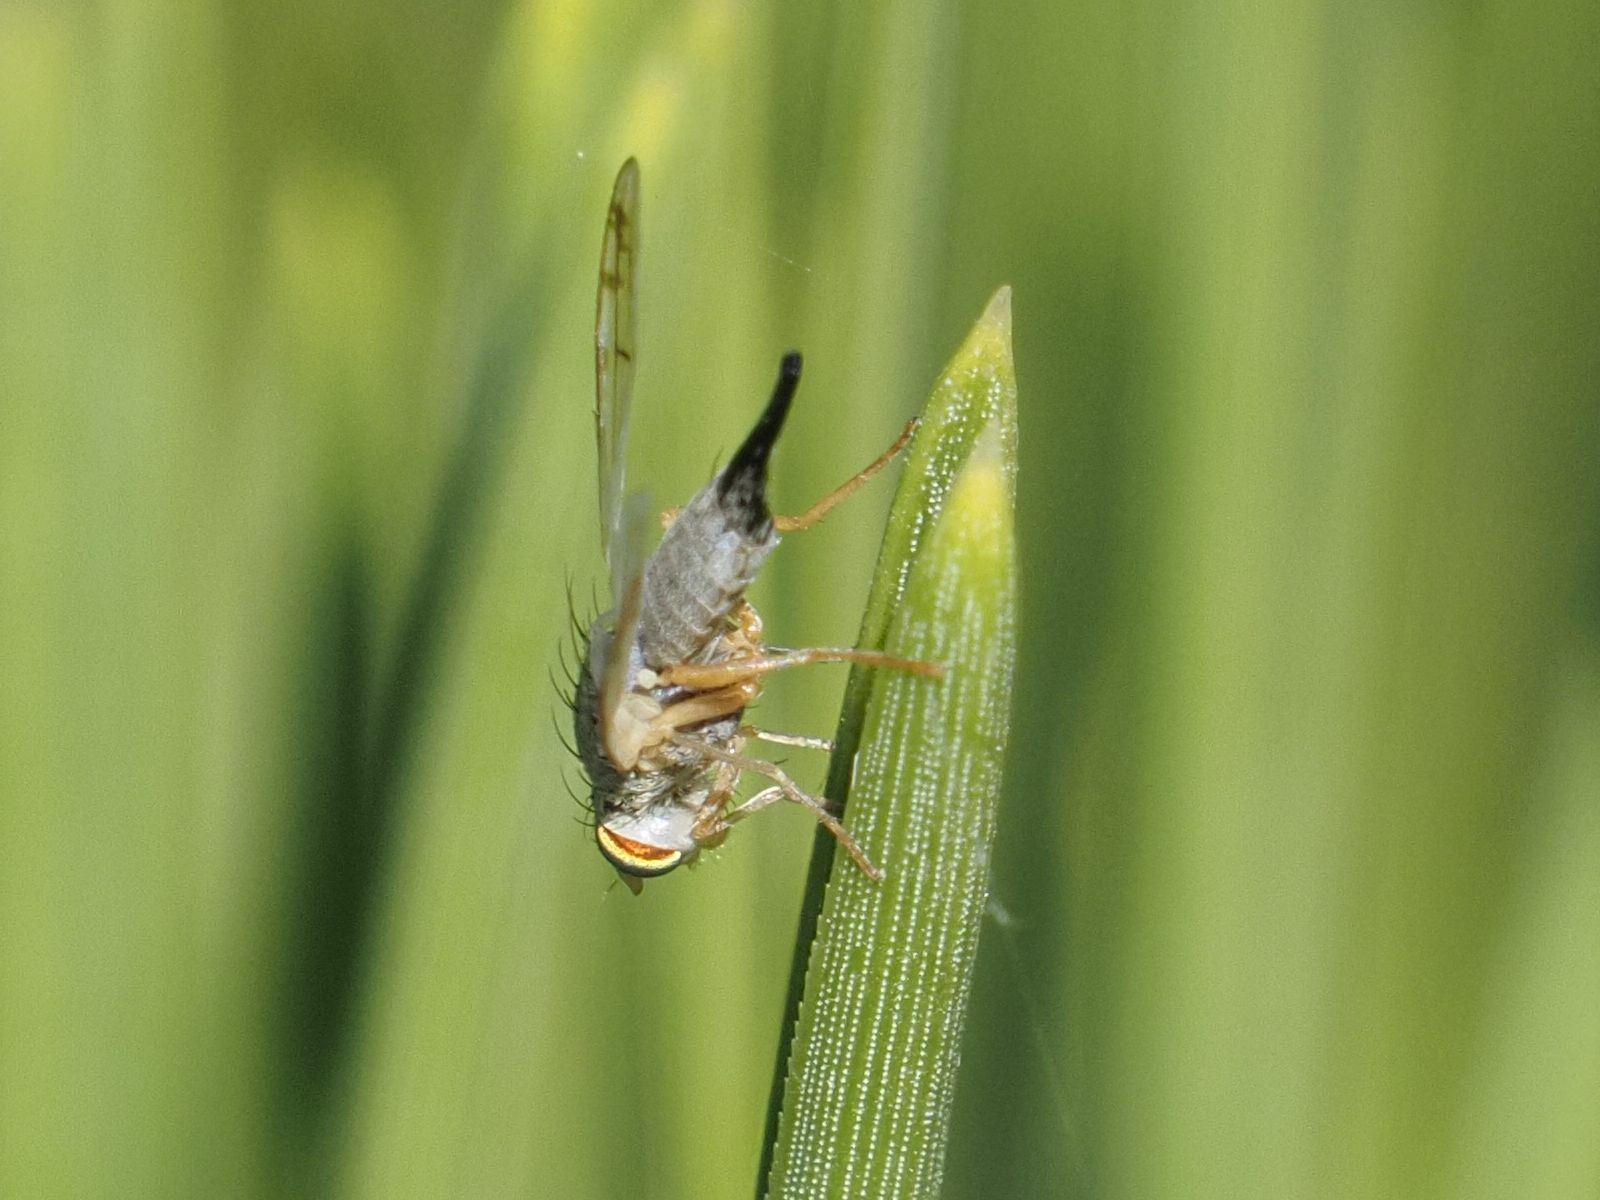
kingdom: Animalia
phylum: Arthropoda
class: Insecta
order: Diptera
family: Tephritidae
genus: Acanthiophilus
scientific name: Acanthiophilus helianthi
